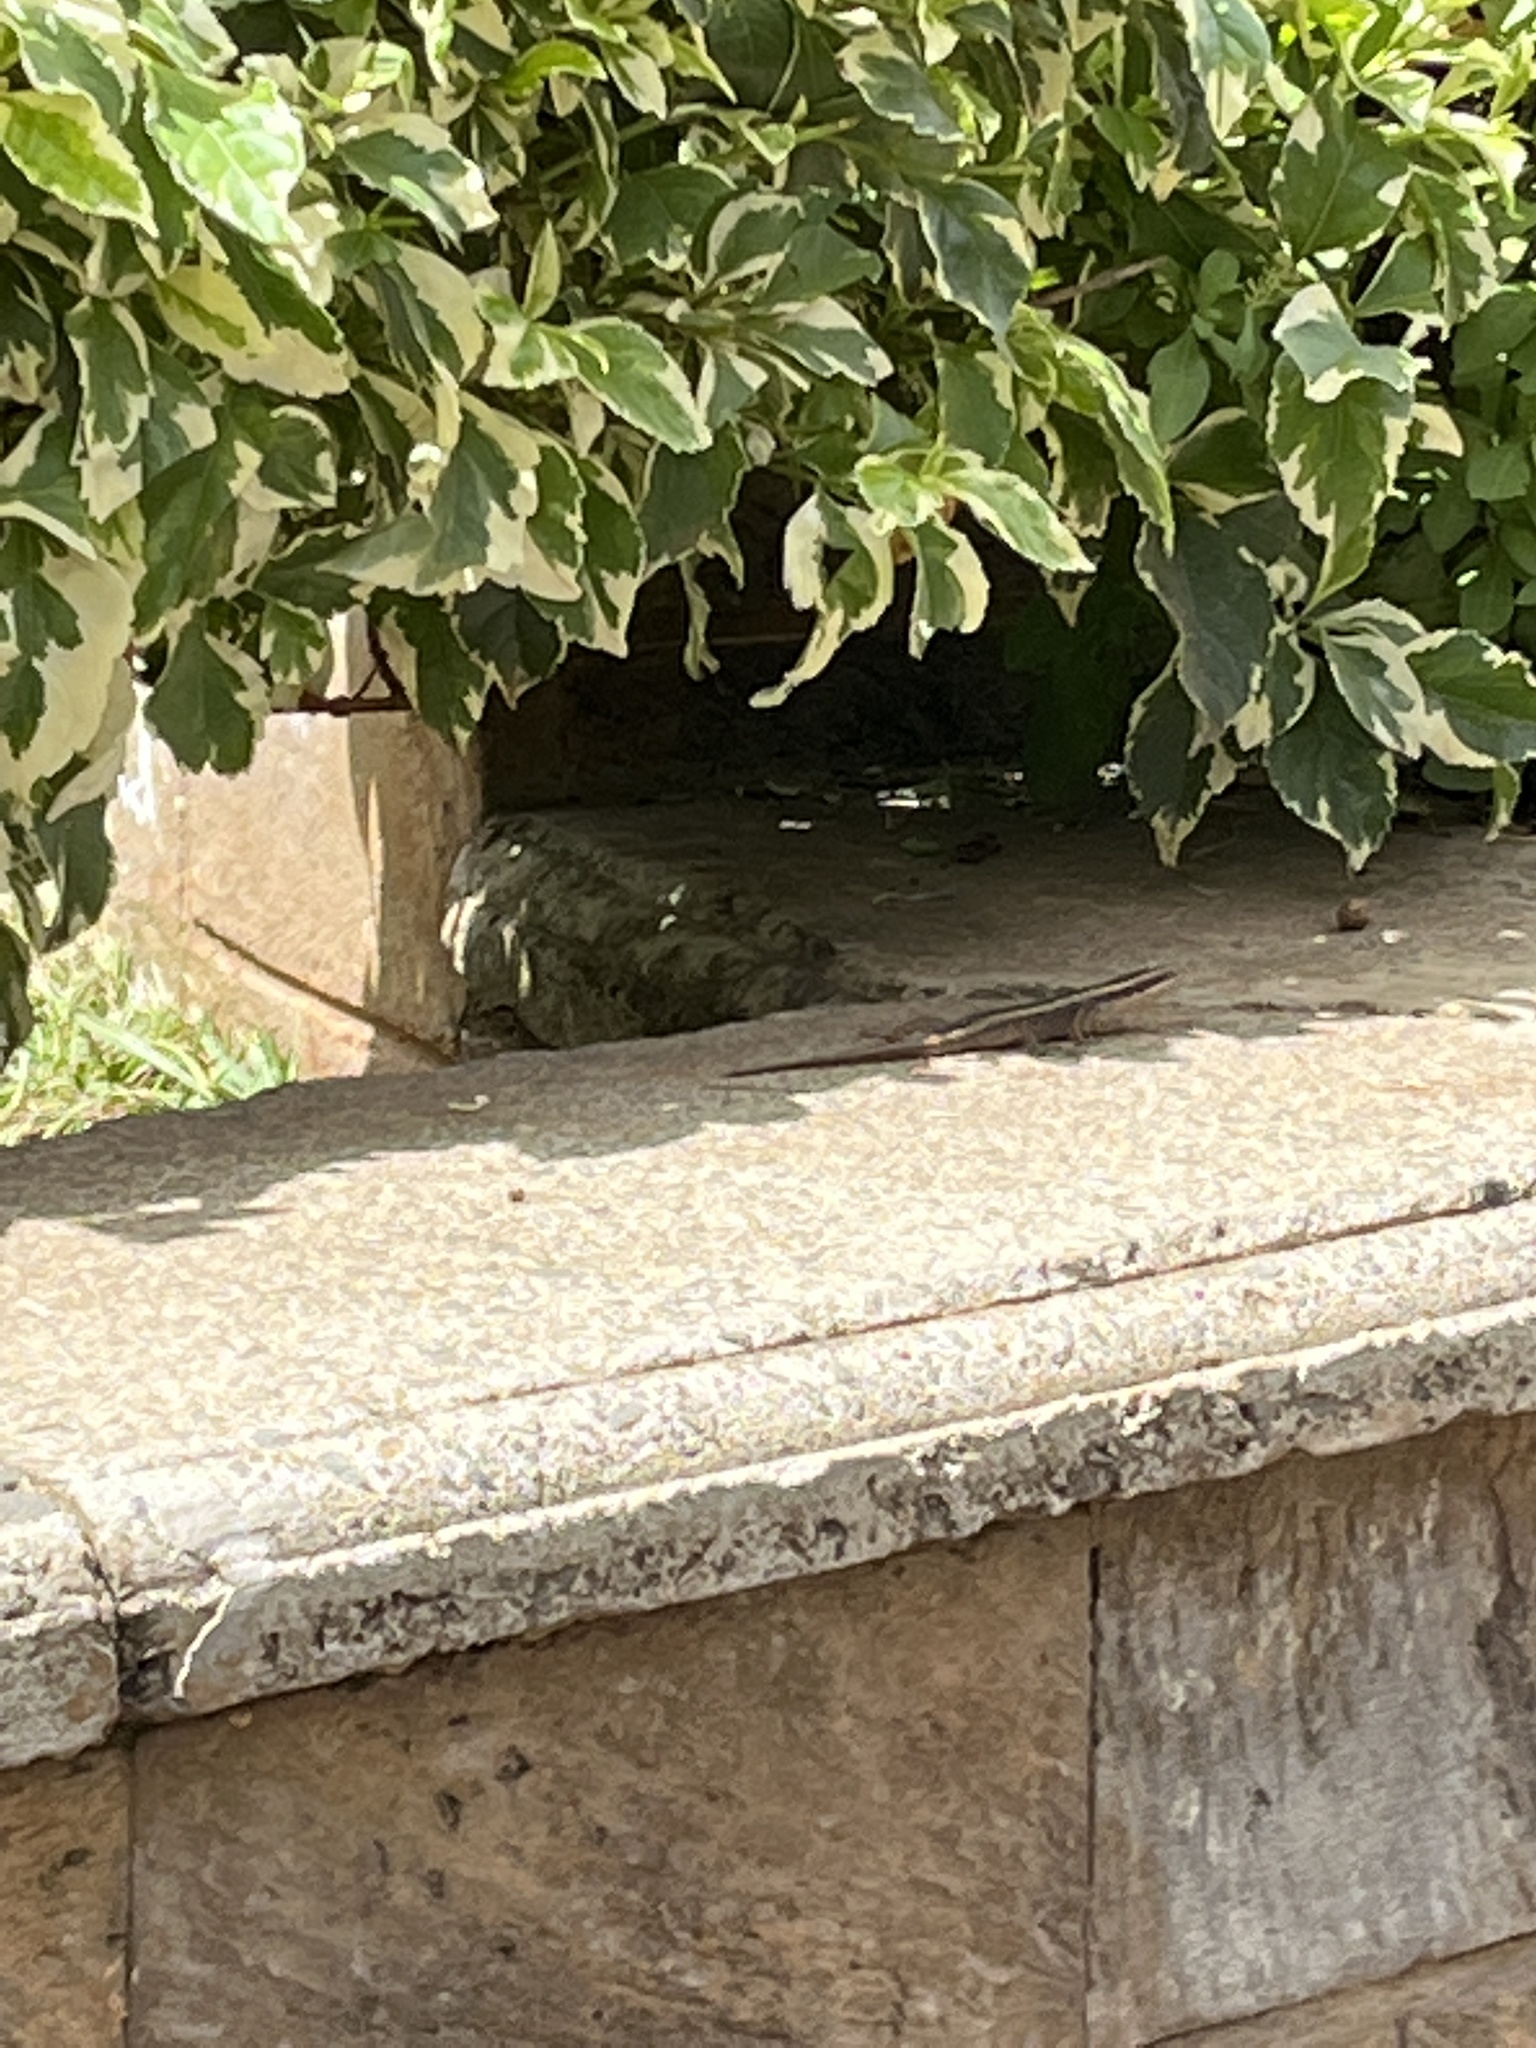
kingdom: Animalia
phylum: Chordata
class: Squamata
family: Scincidae
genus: Trachylepis
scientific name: Trachylepis striata
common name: African striped mabuya
